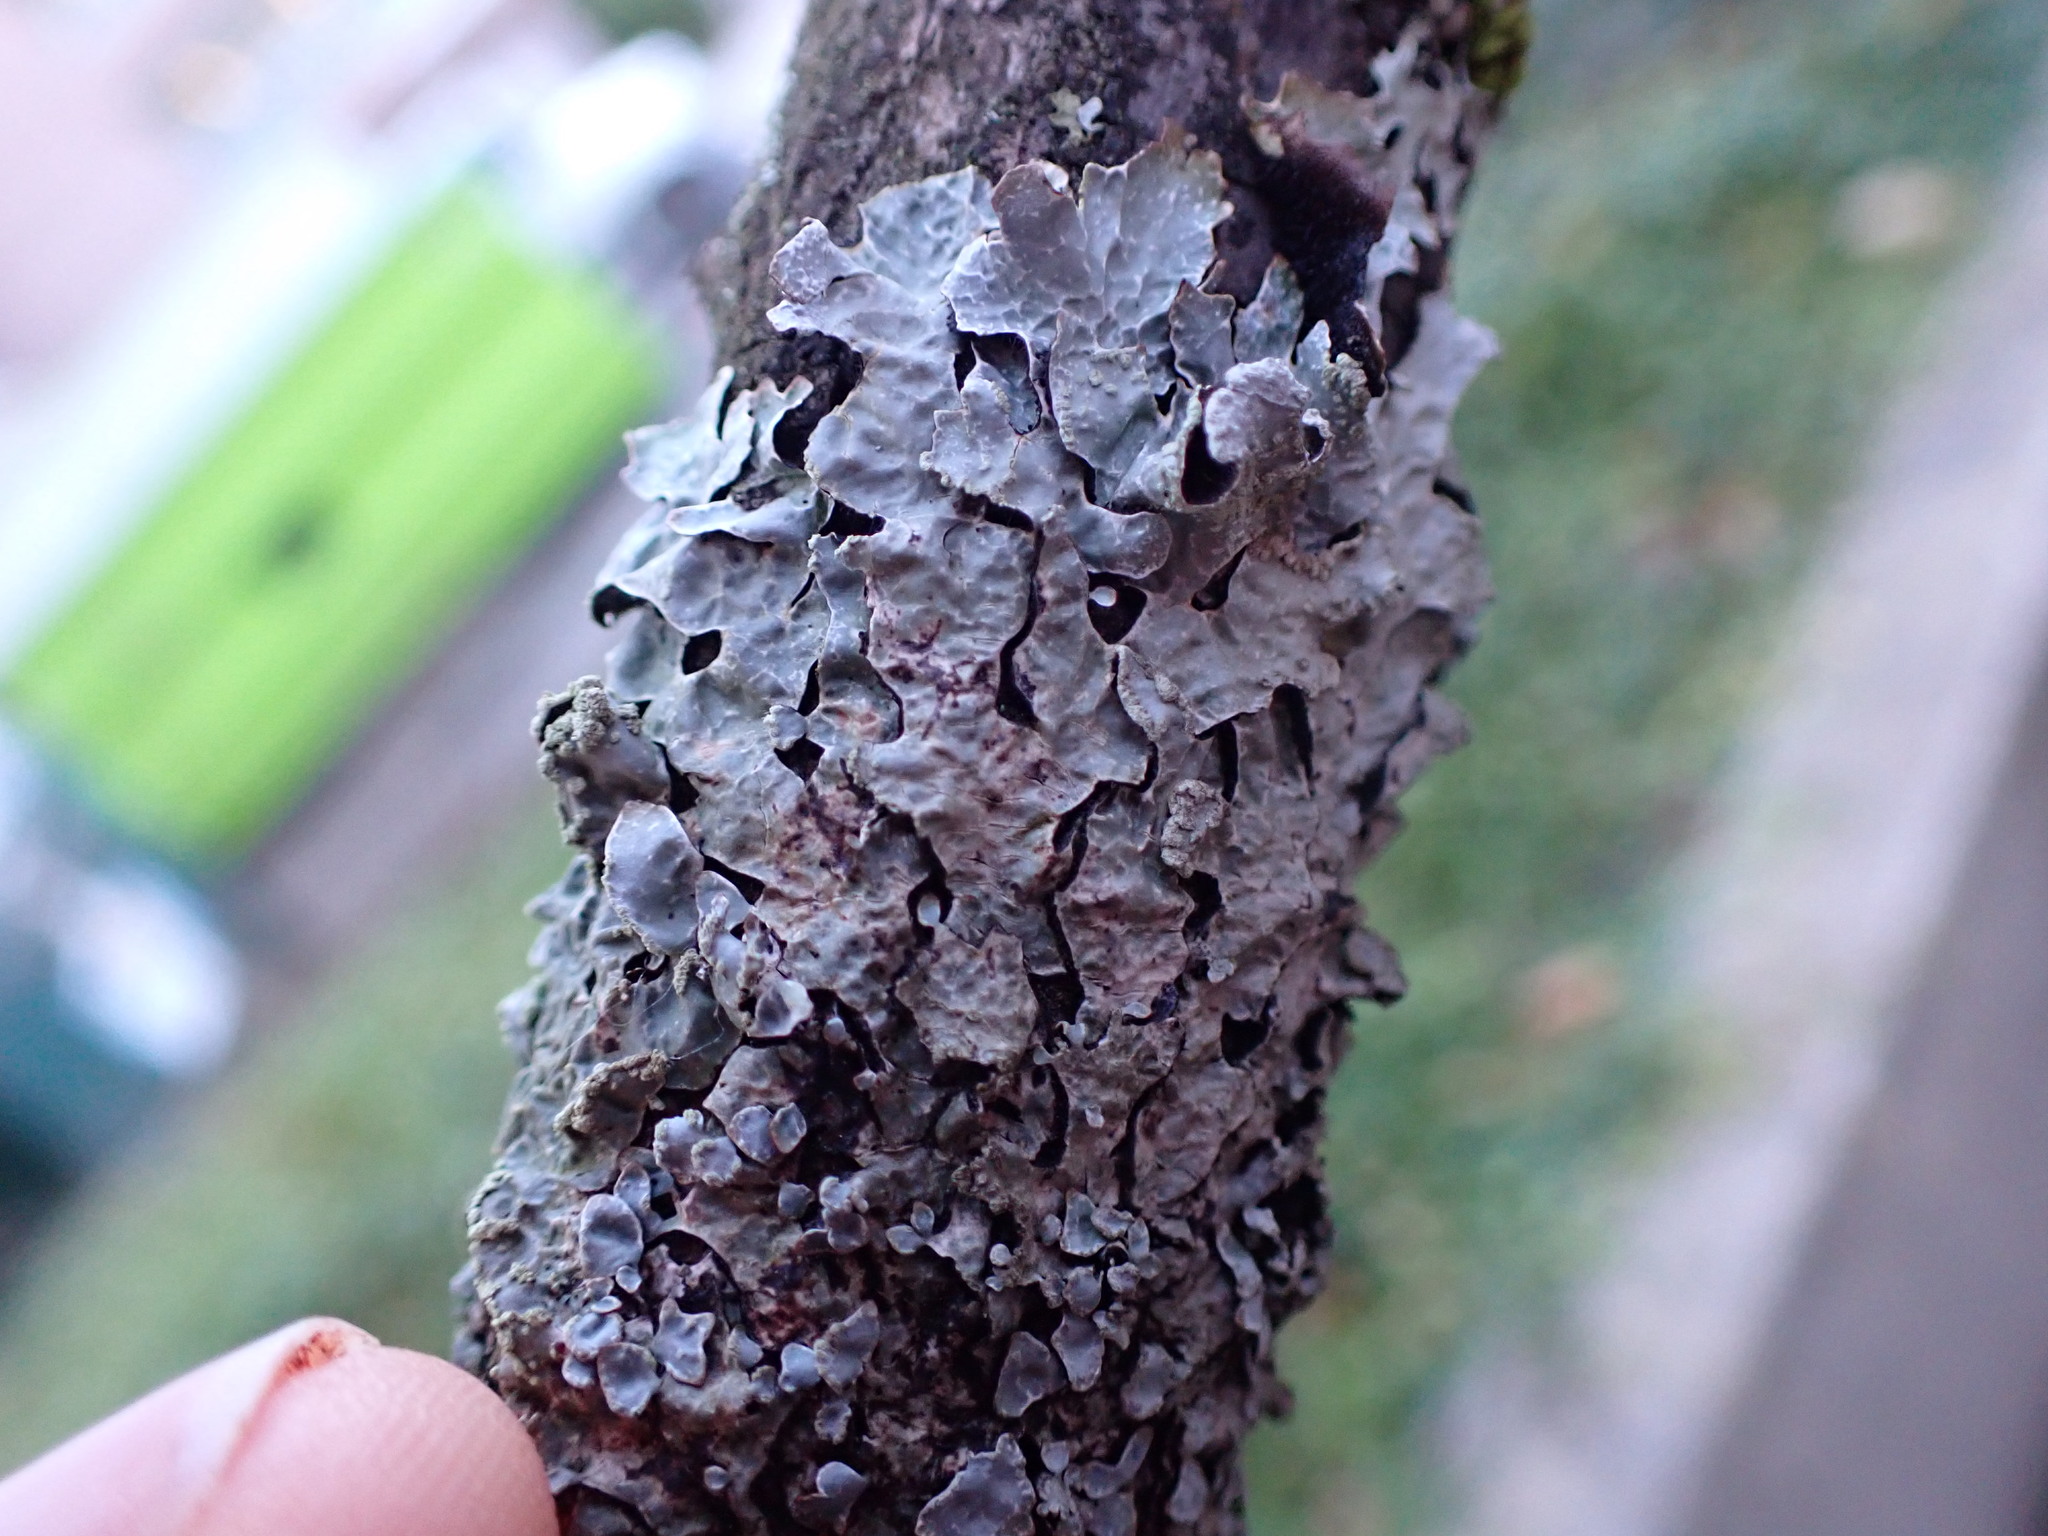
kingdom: Fungi
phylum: Ascomycota
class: Lecanoromycetes
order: Lecanorales
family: Parmeliaceae
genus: Parmelia
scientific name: Parmelia sulcata
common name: Netted shield lichen
